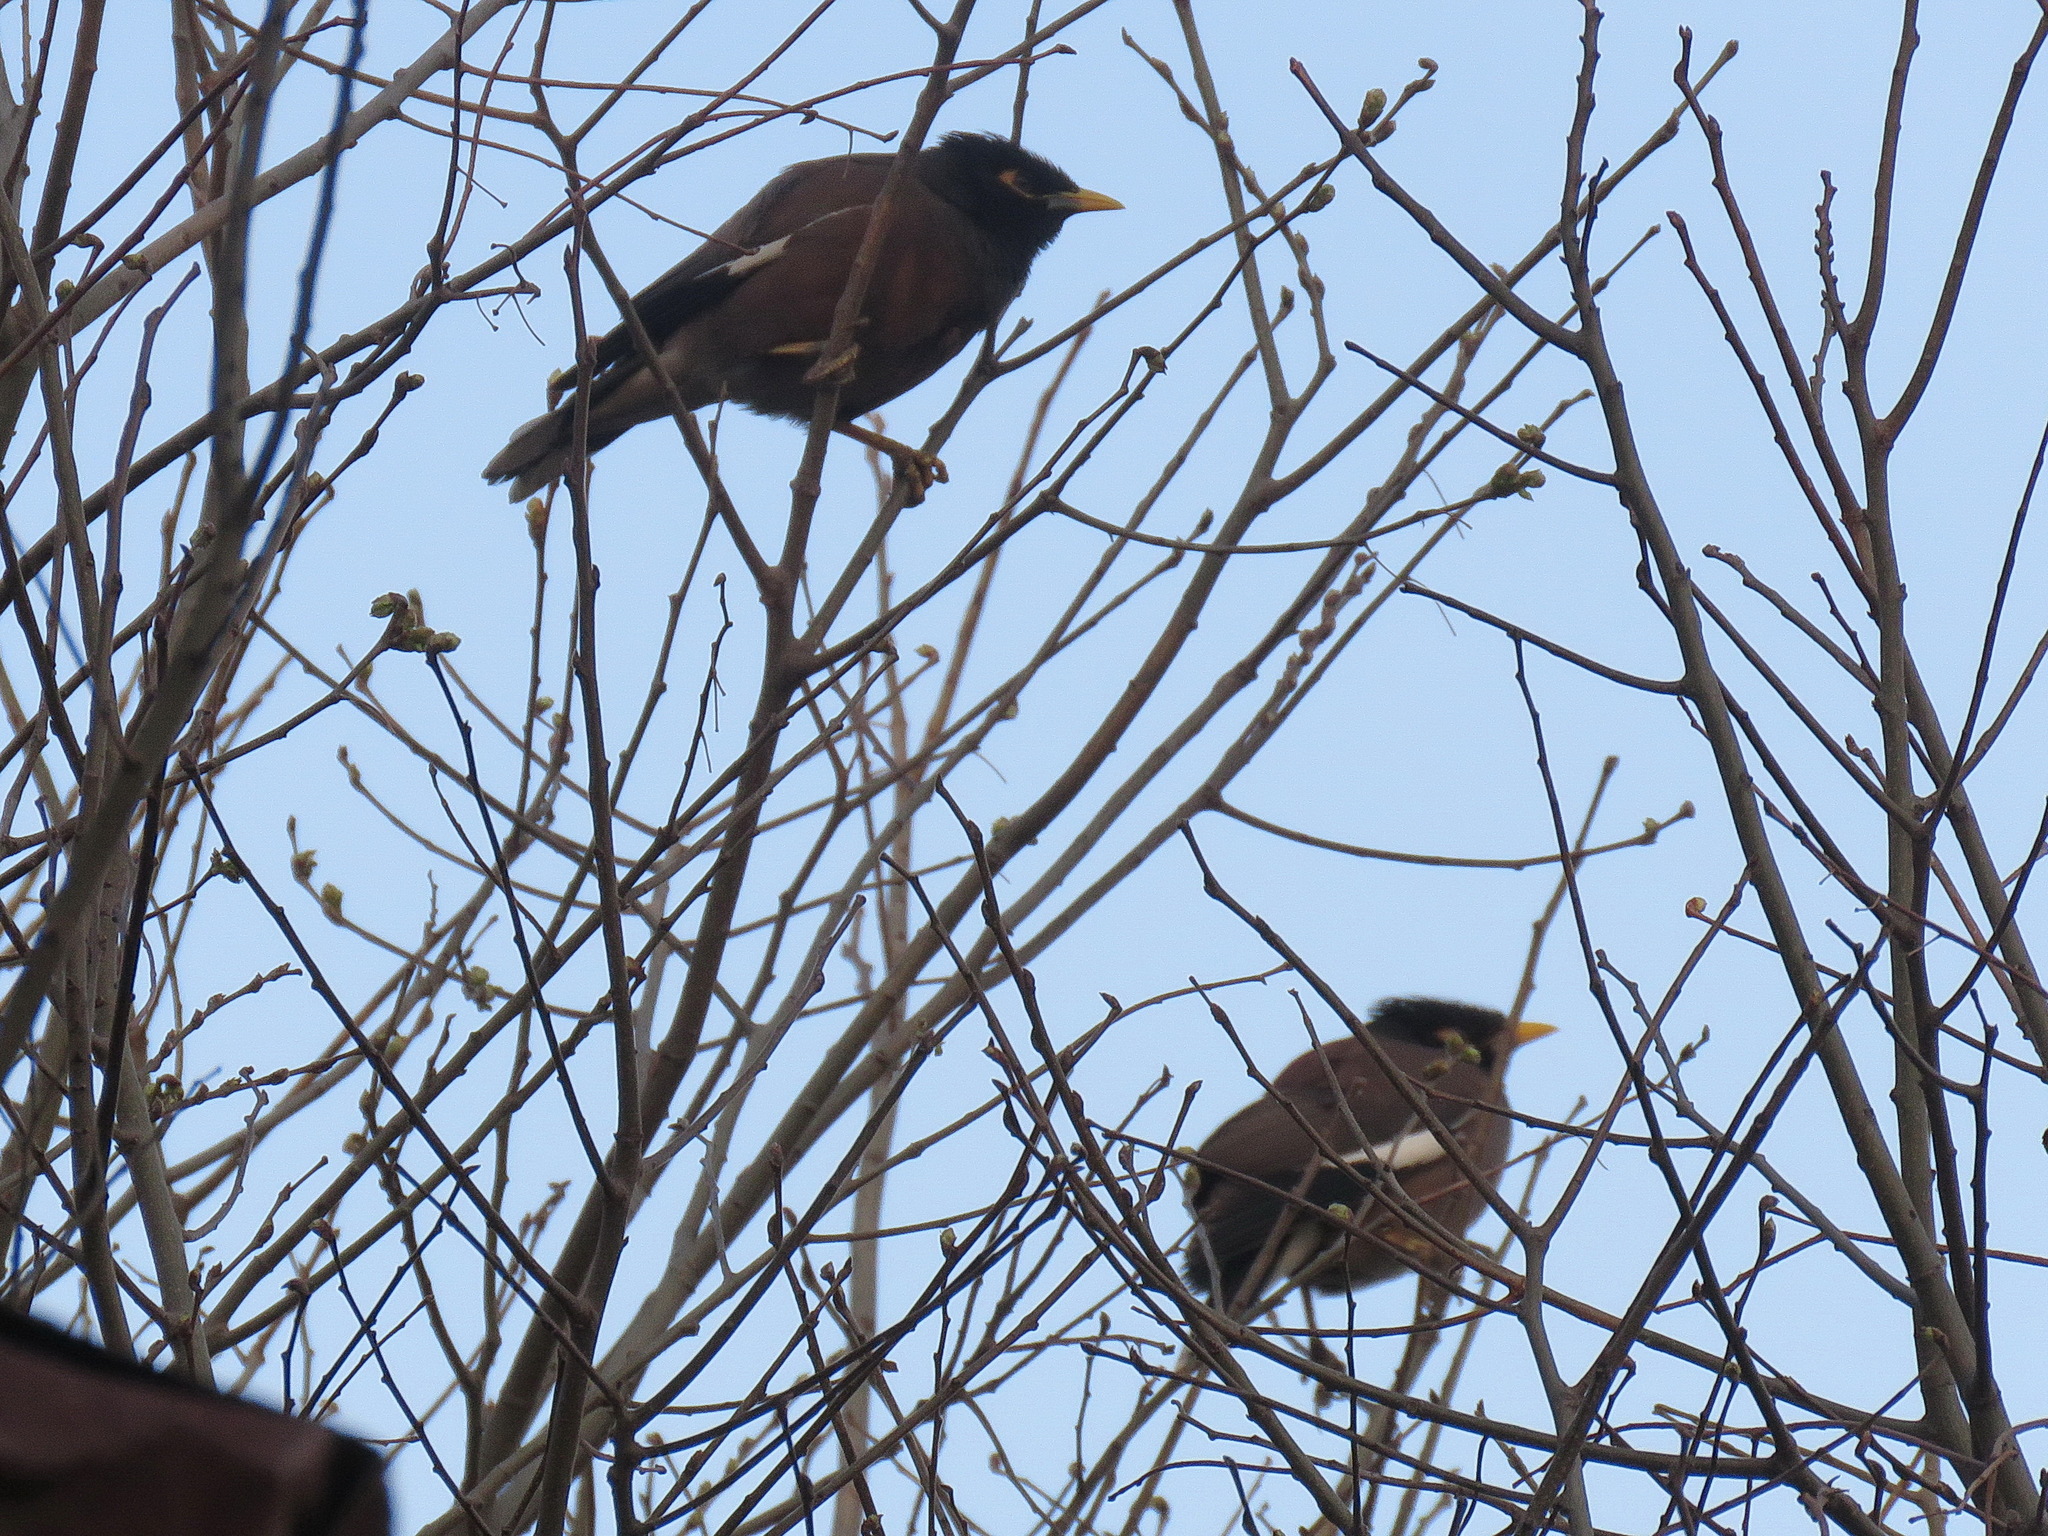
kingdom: Animalia
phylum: Chordata
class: Aves
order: Passeriformes
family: Sturnidae
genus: Acridotheres
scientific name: Acridotheres tristis
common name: Common myna
